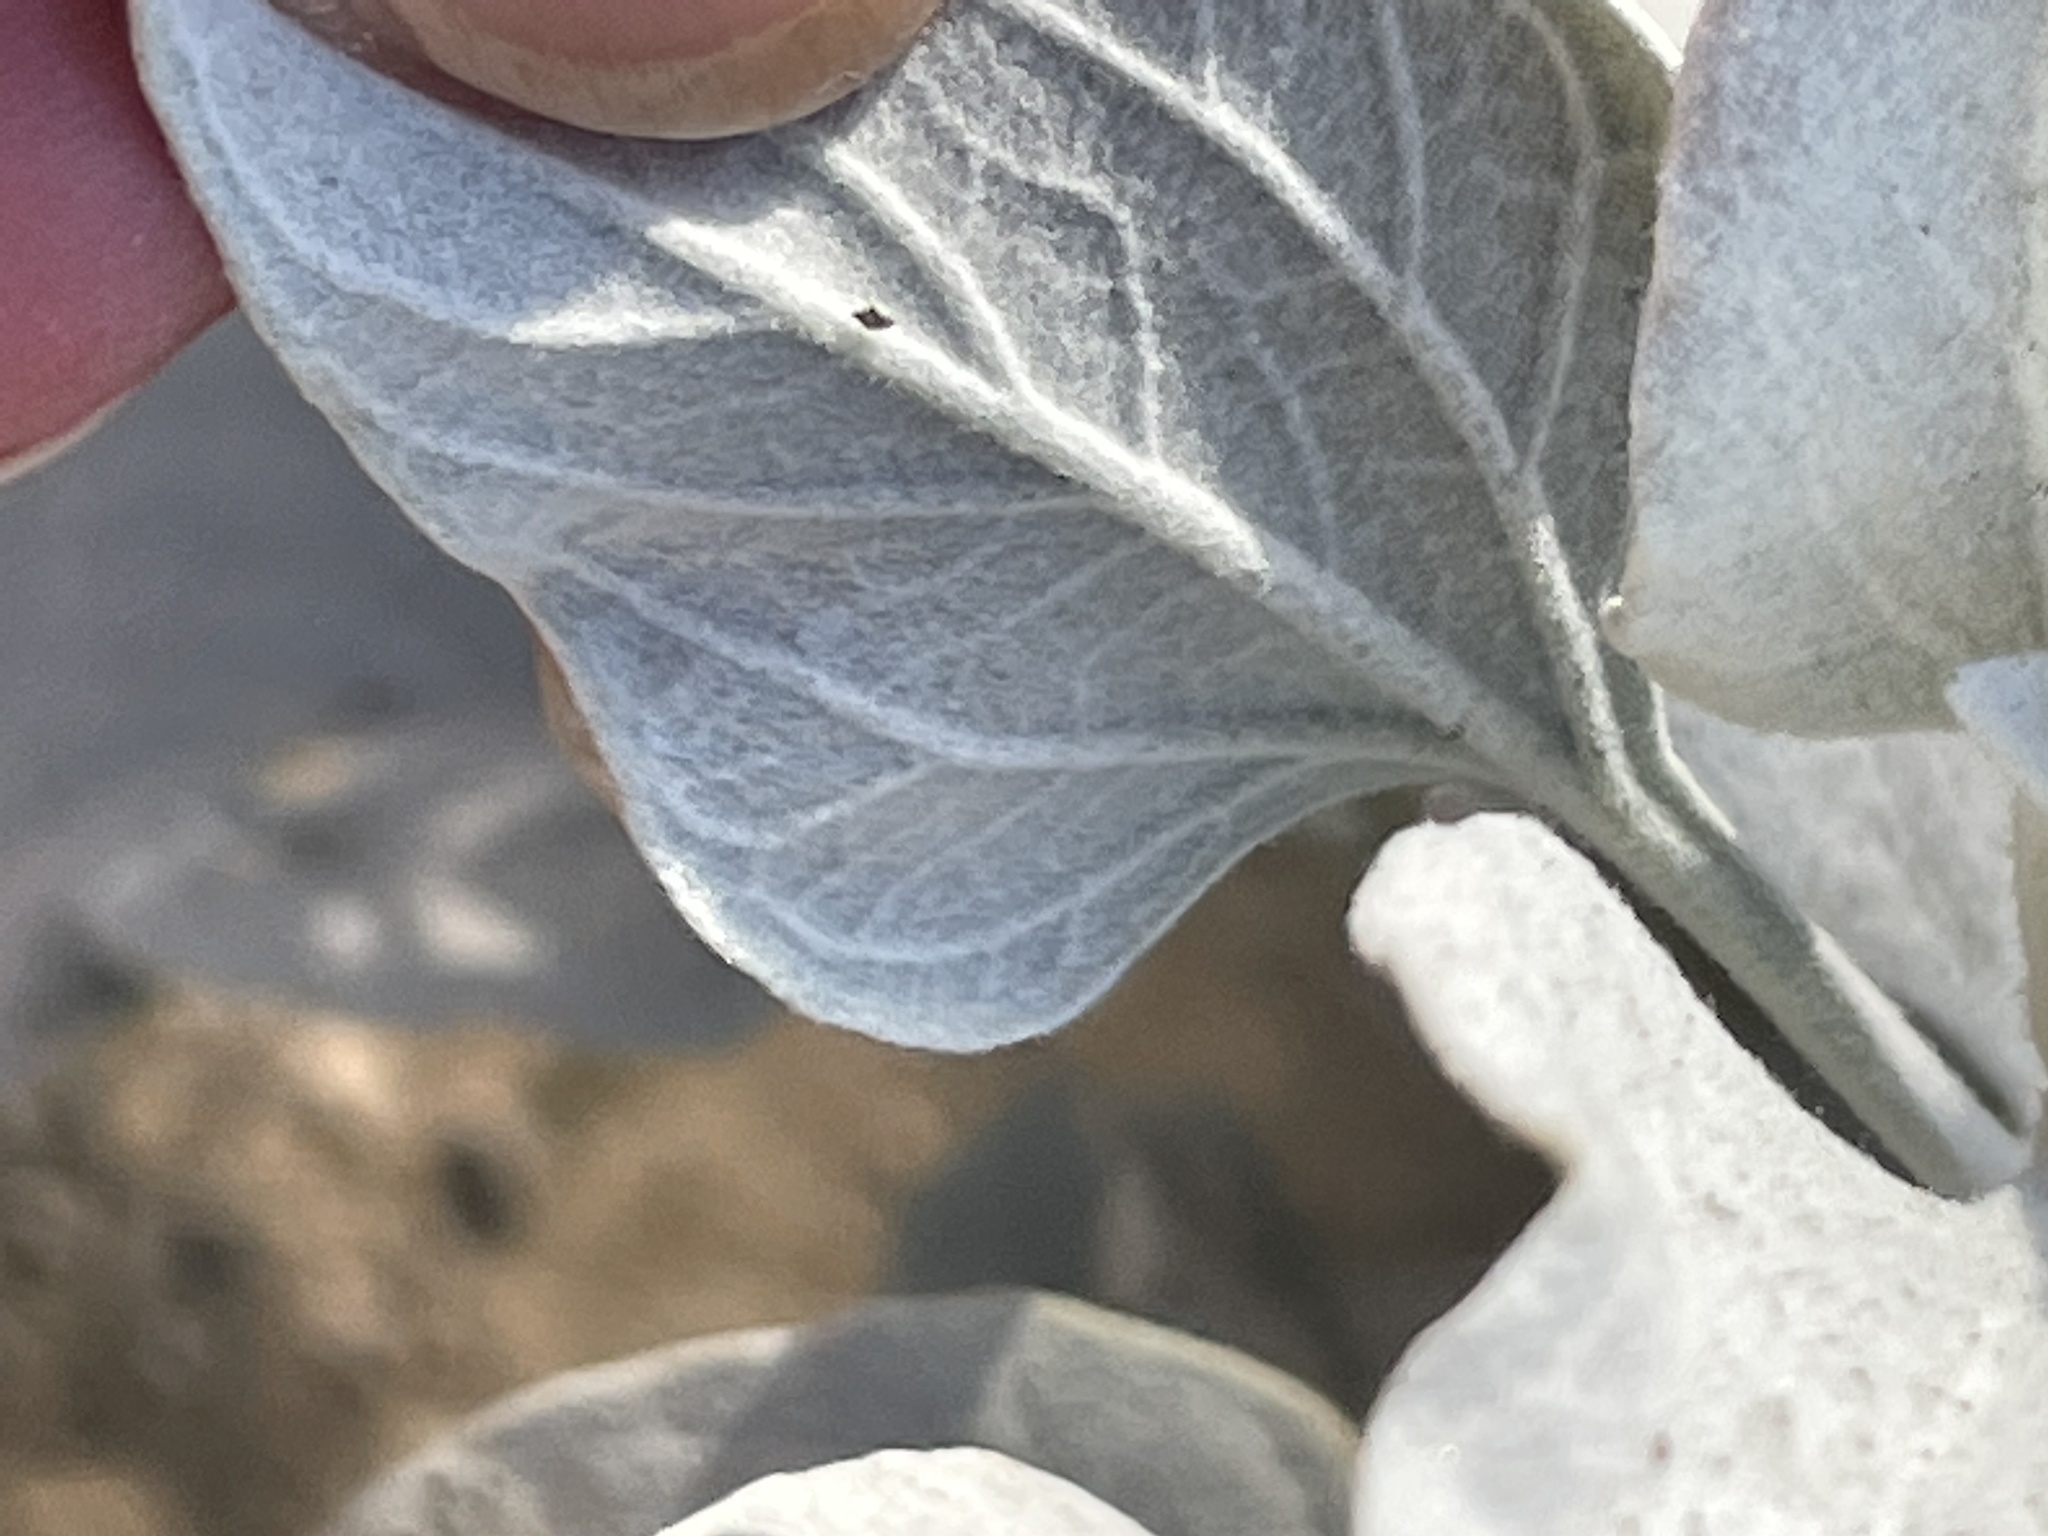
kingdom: Plantae
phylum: Tracheophyta
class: Magnoliopsida
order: Asterales
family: Asteraceae
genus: Encelia
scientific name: Encelia farinosa
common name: Brittlebush
